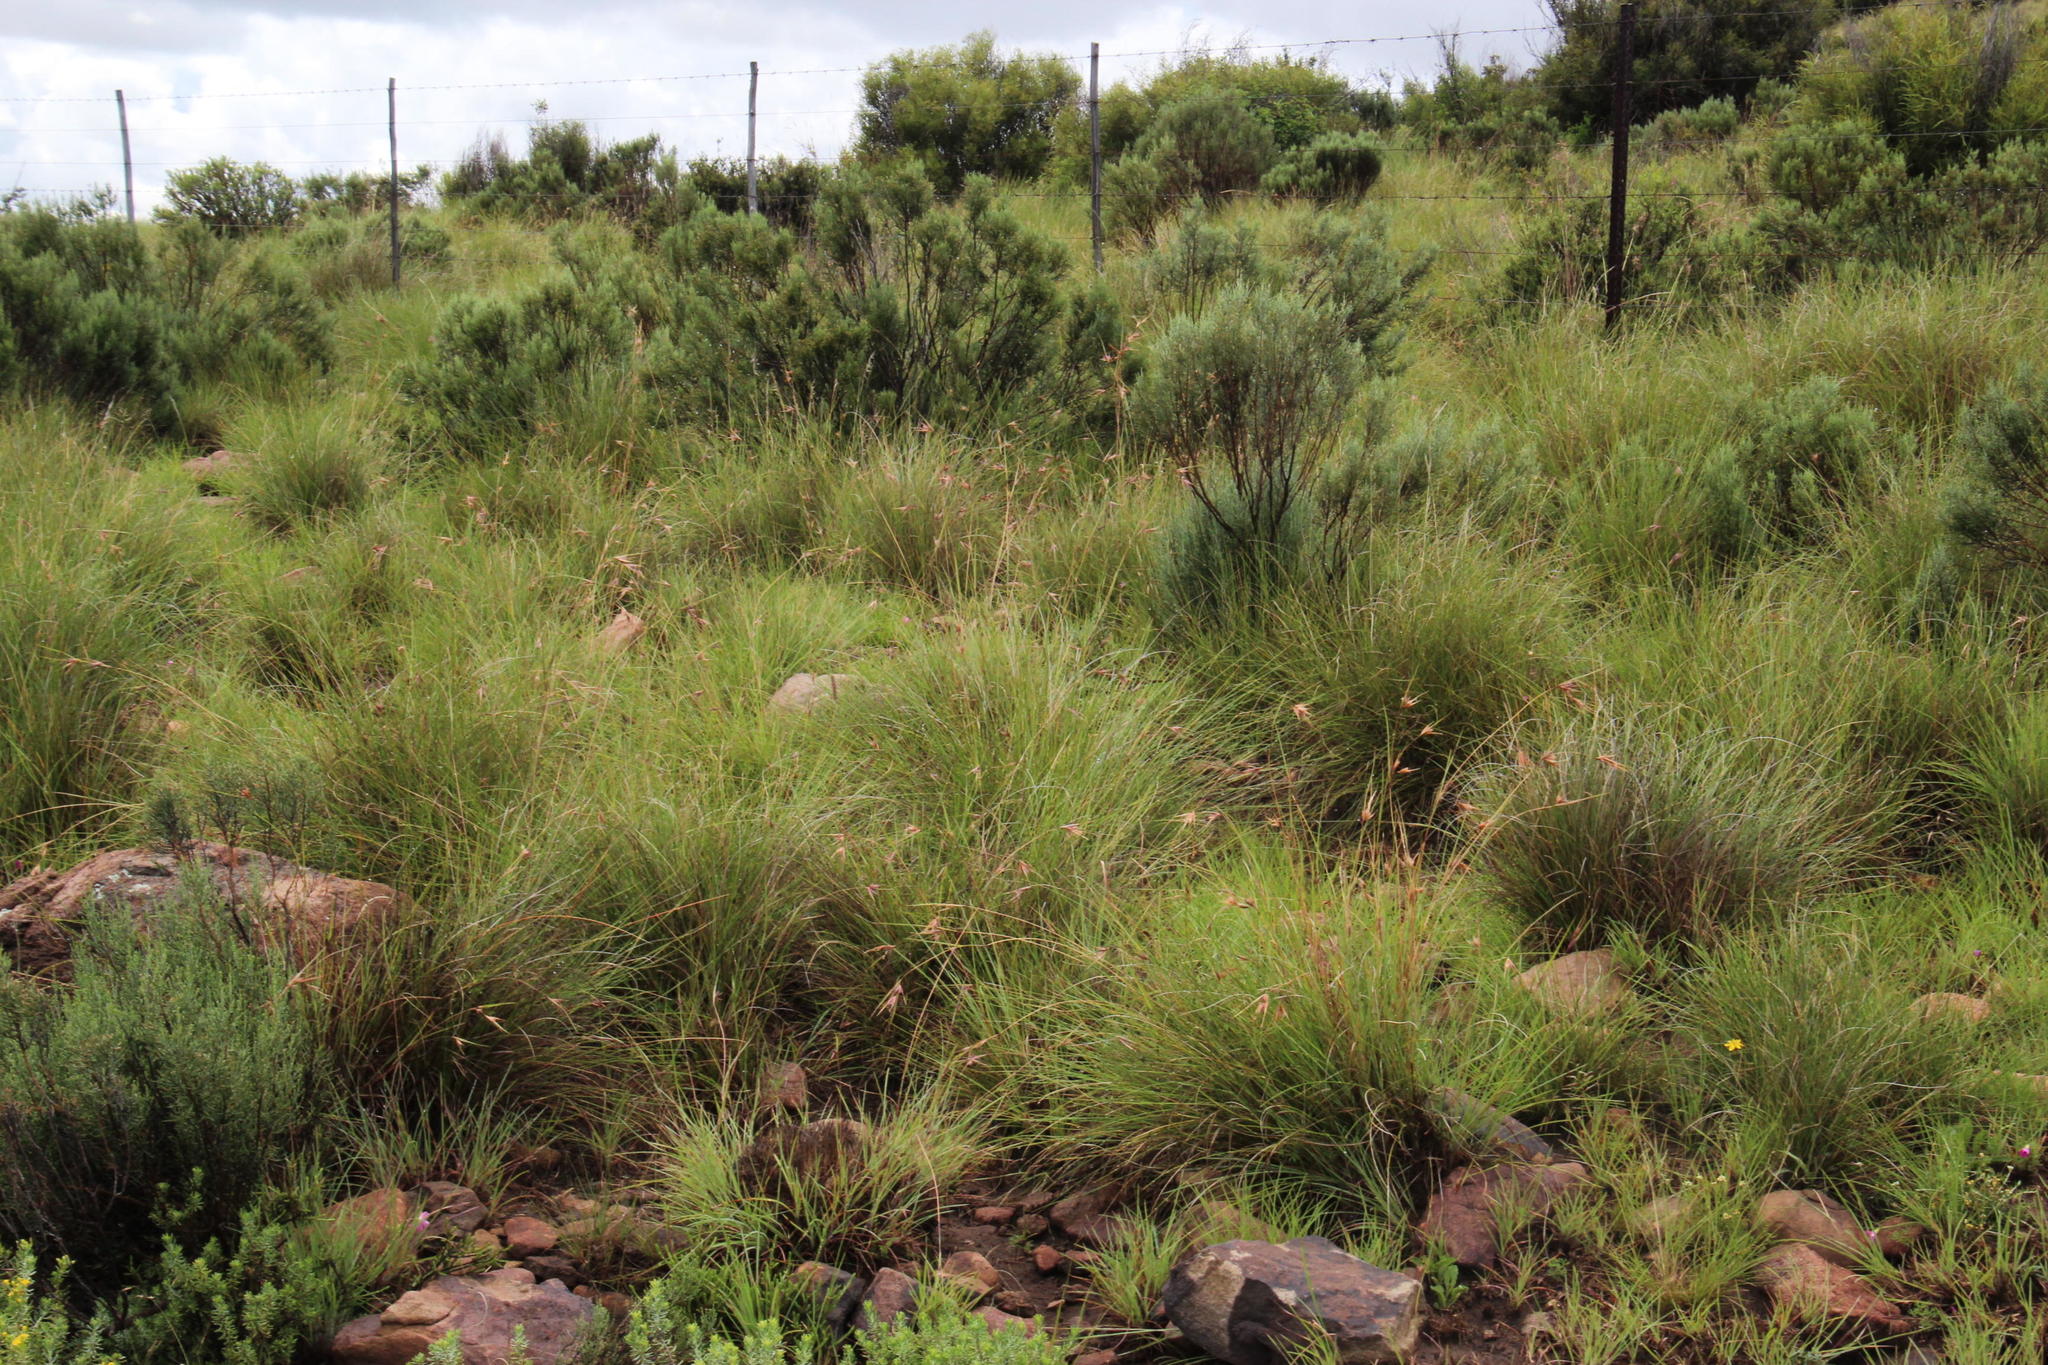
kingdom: Plantae
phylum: Tracheophyta
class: Liliopsida
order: Poales
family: Poaceae
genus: Themeda
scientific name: Themeda triandra
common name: Kangaroo grass
